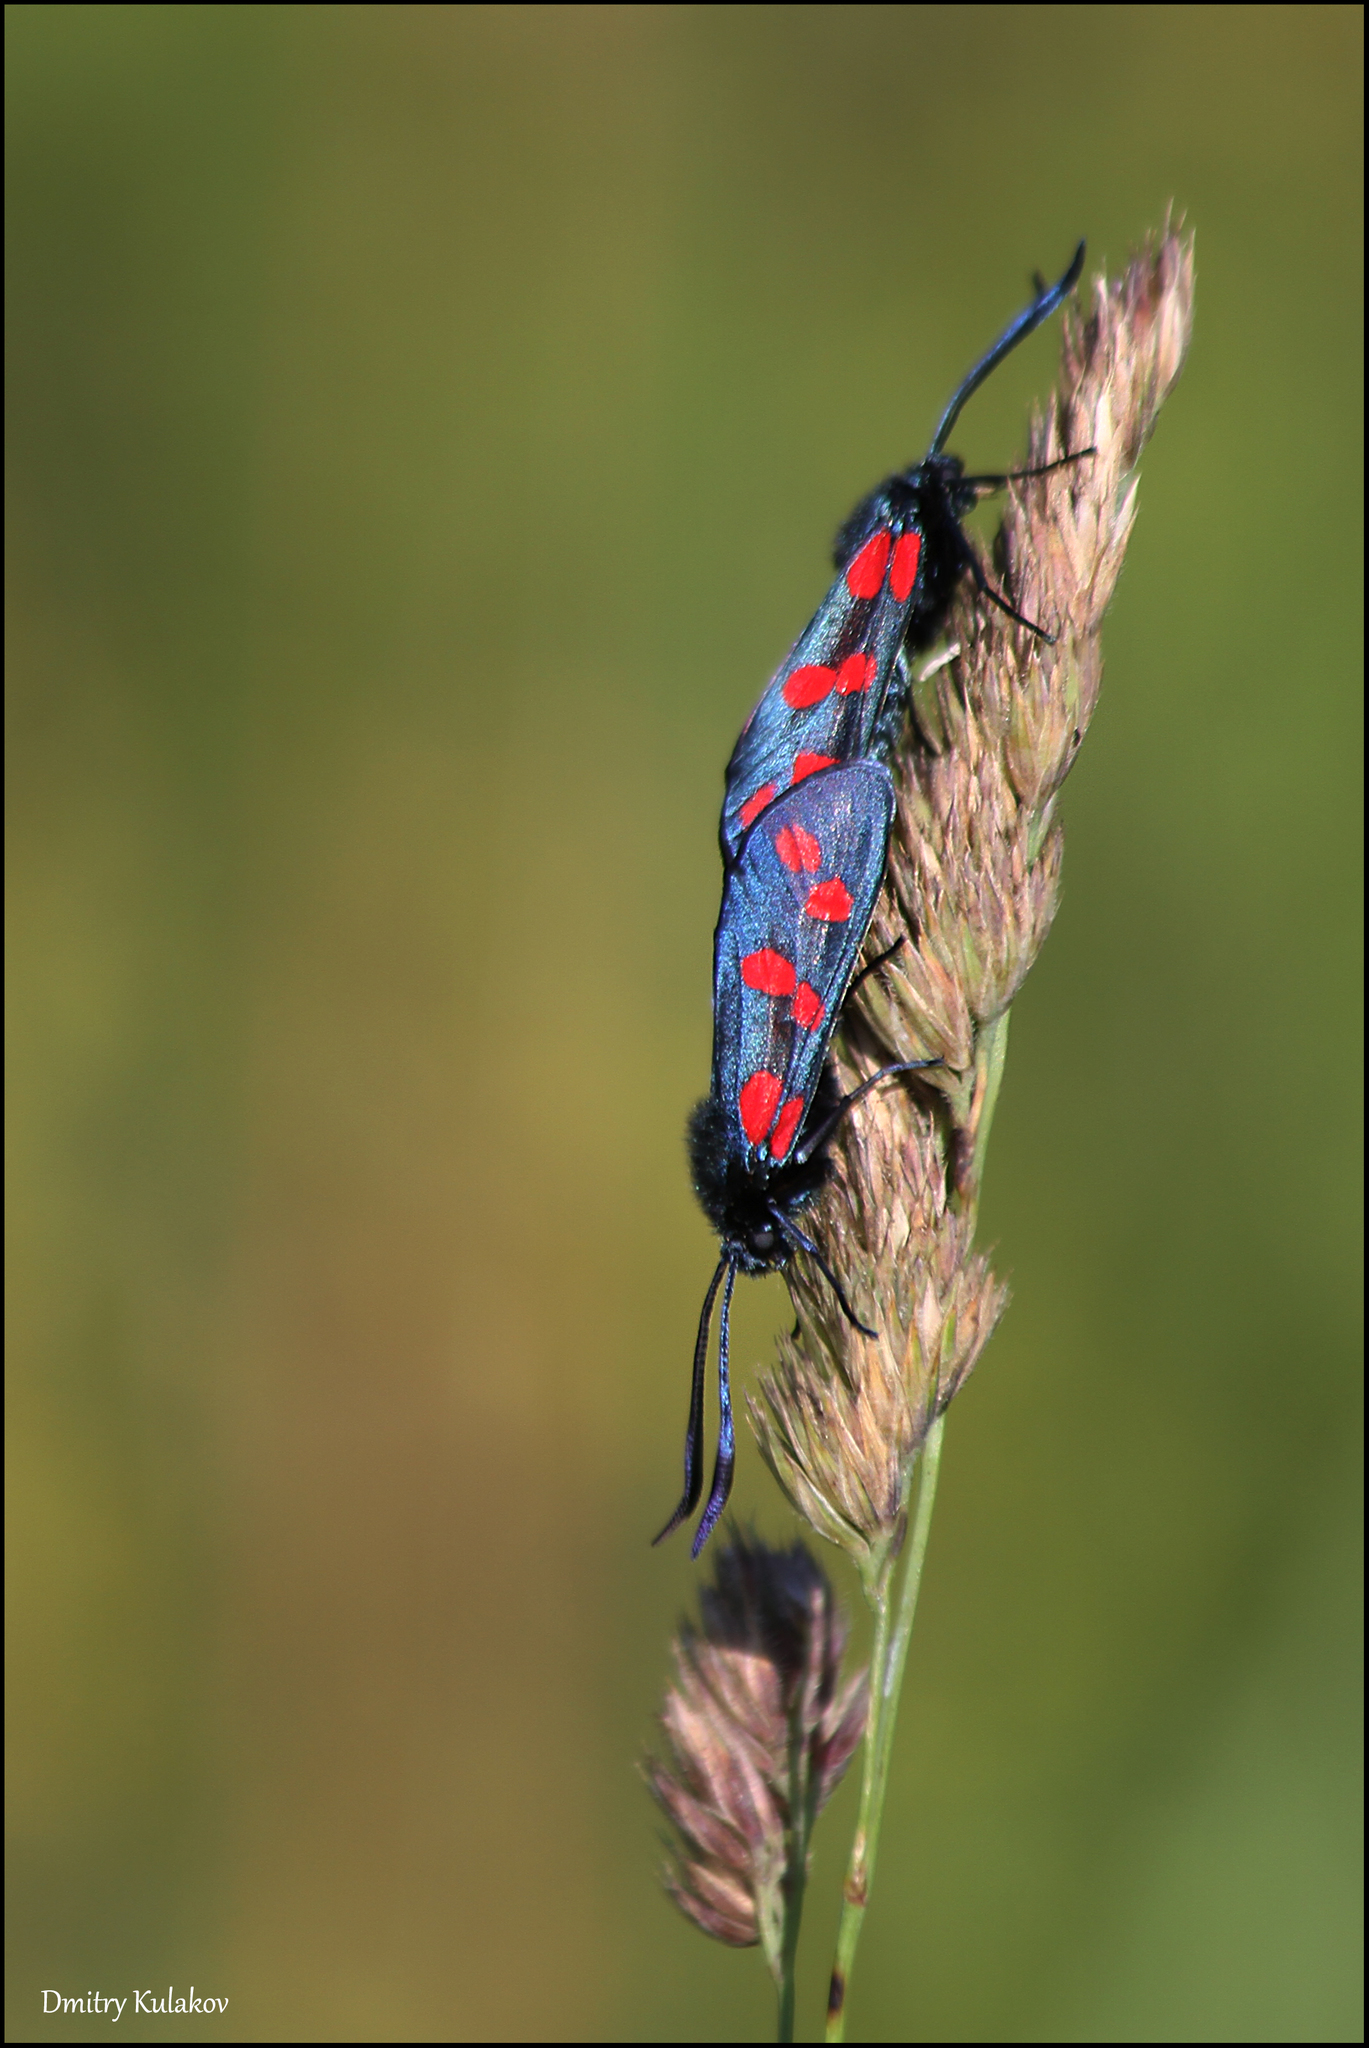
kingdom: Animalia
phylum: Arthropoda
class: Insecta
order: Lepidoptera
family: Zygaenidae
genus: Zygaena
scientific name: Zygaena filipendulae
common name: Six-spot burnet
